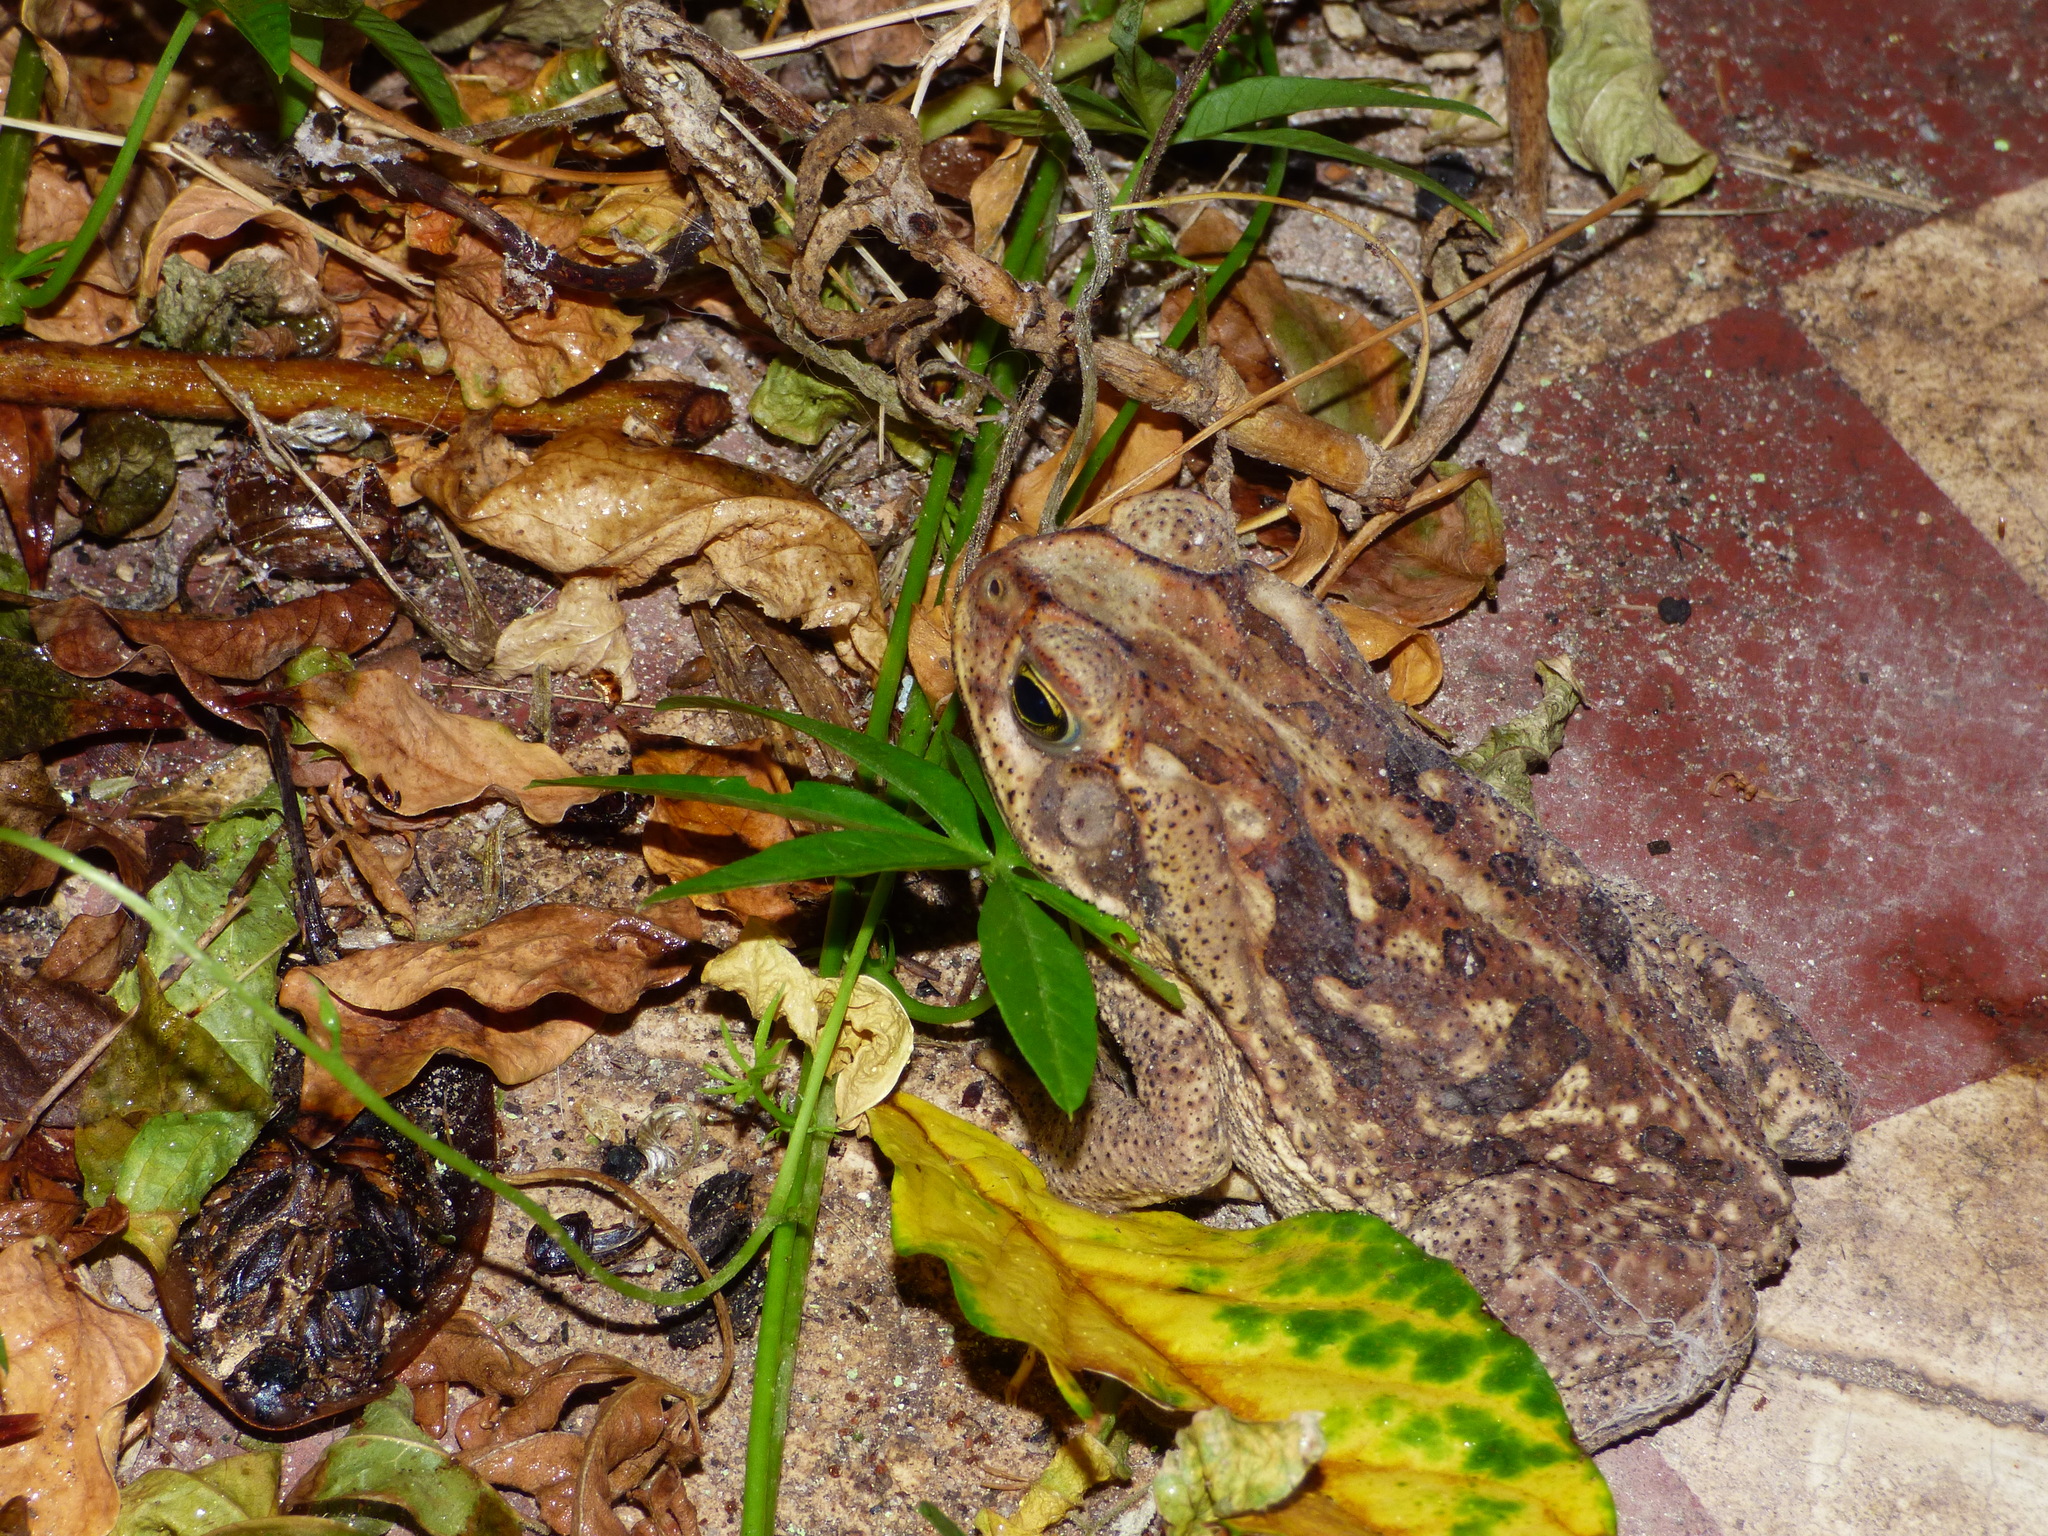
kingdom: Animalia
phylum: Chordata
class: Amphibia
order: Anura
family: Bufonidae
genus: Rhinella
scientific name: Rhinella diptycha
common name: Cope's toad
